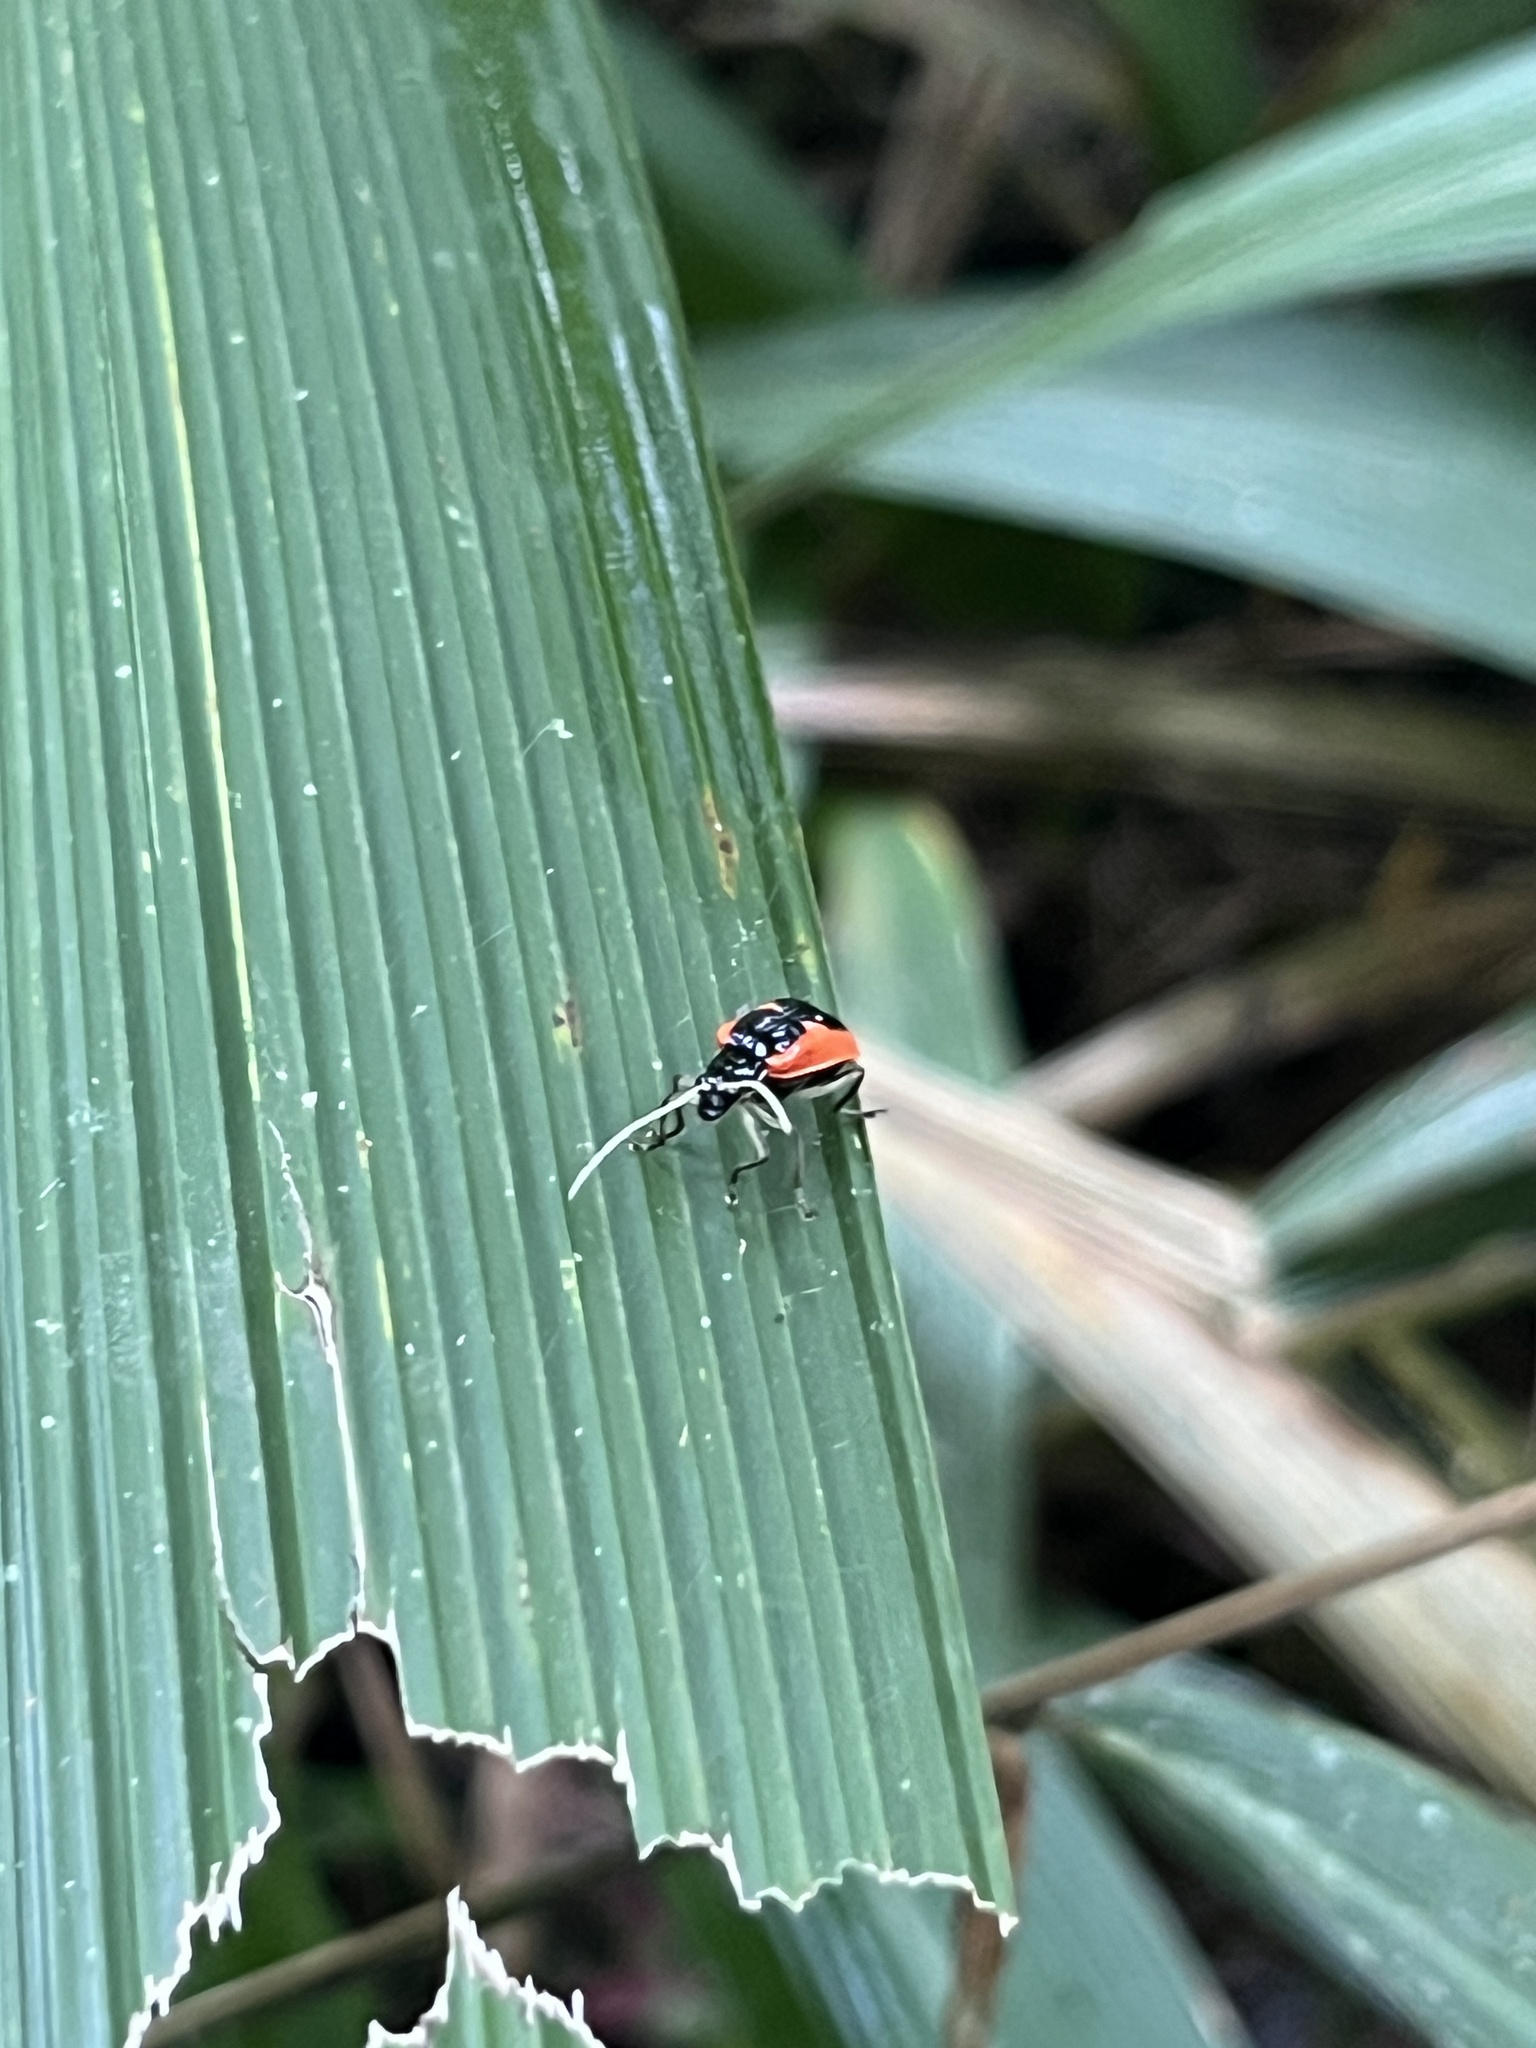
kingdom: Animalia
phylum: Arthropoda
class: Insecta
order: Coleoptera
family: Chrysomelidae
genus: Paratriarius
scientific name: Paratriarius tropica
